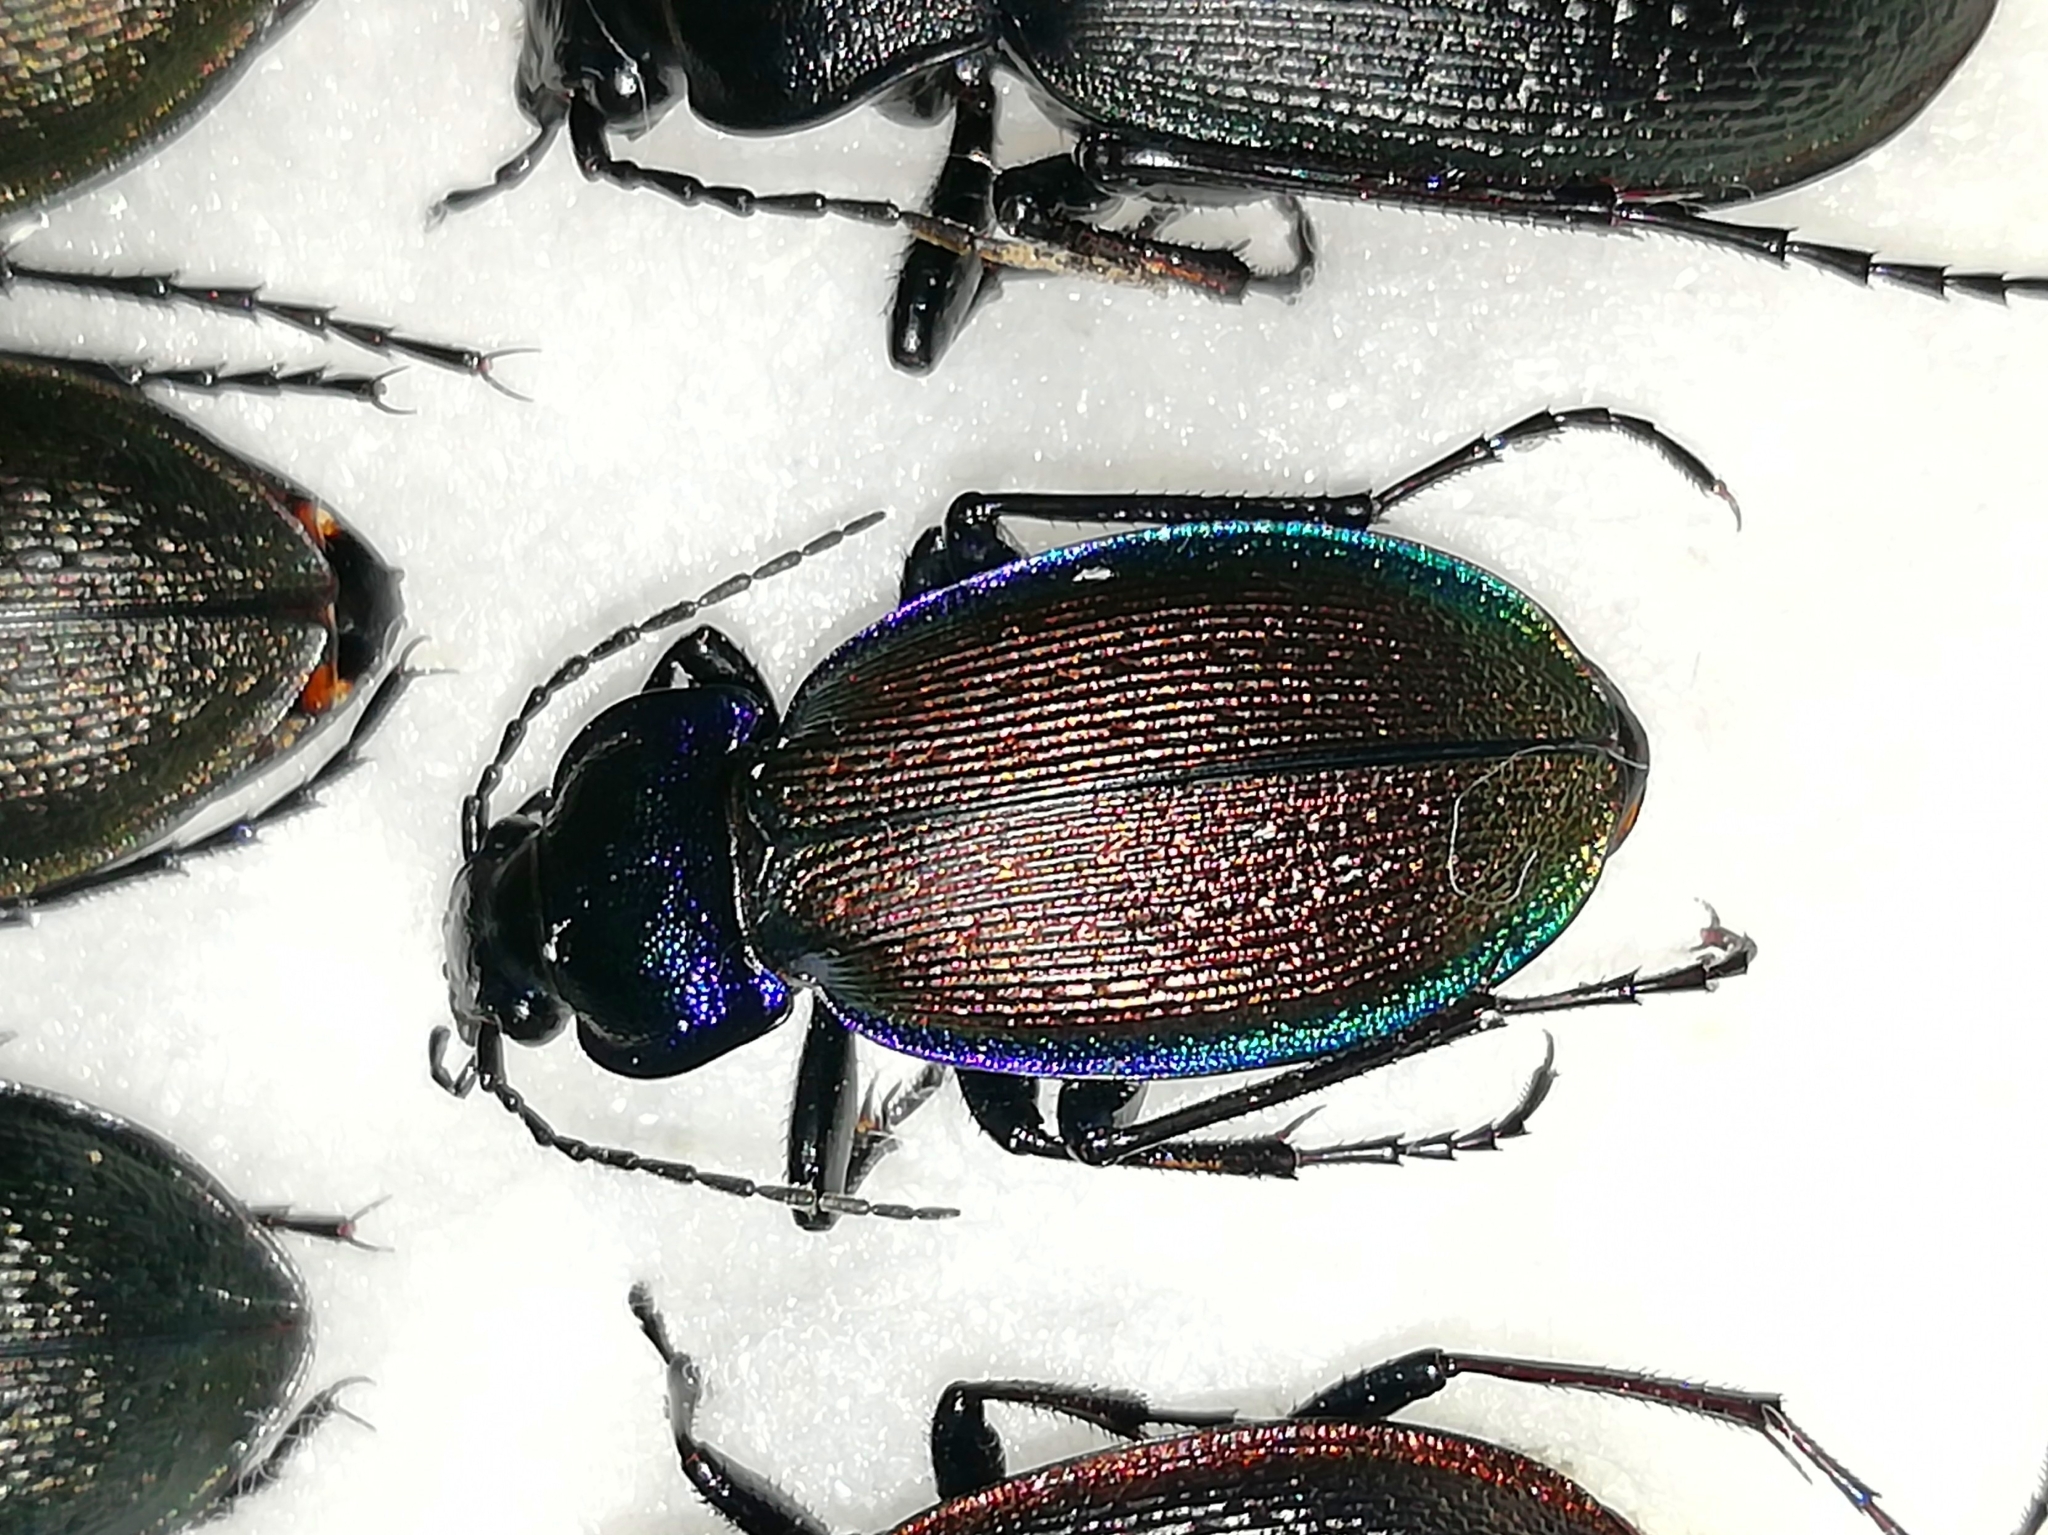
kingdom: Animalia
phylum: Arthropoda
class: Insecta
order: Coleoptera
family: Carabidae
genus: Carabus
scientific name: Carabus regalis
